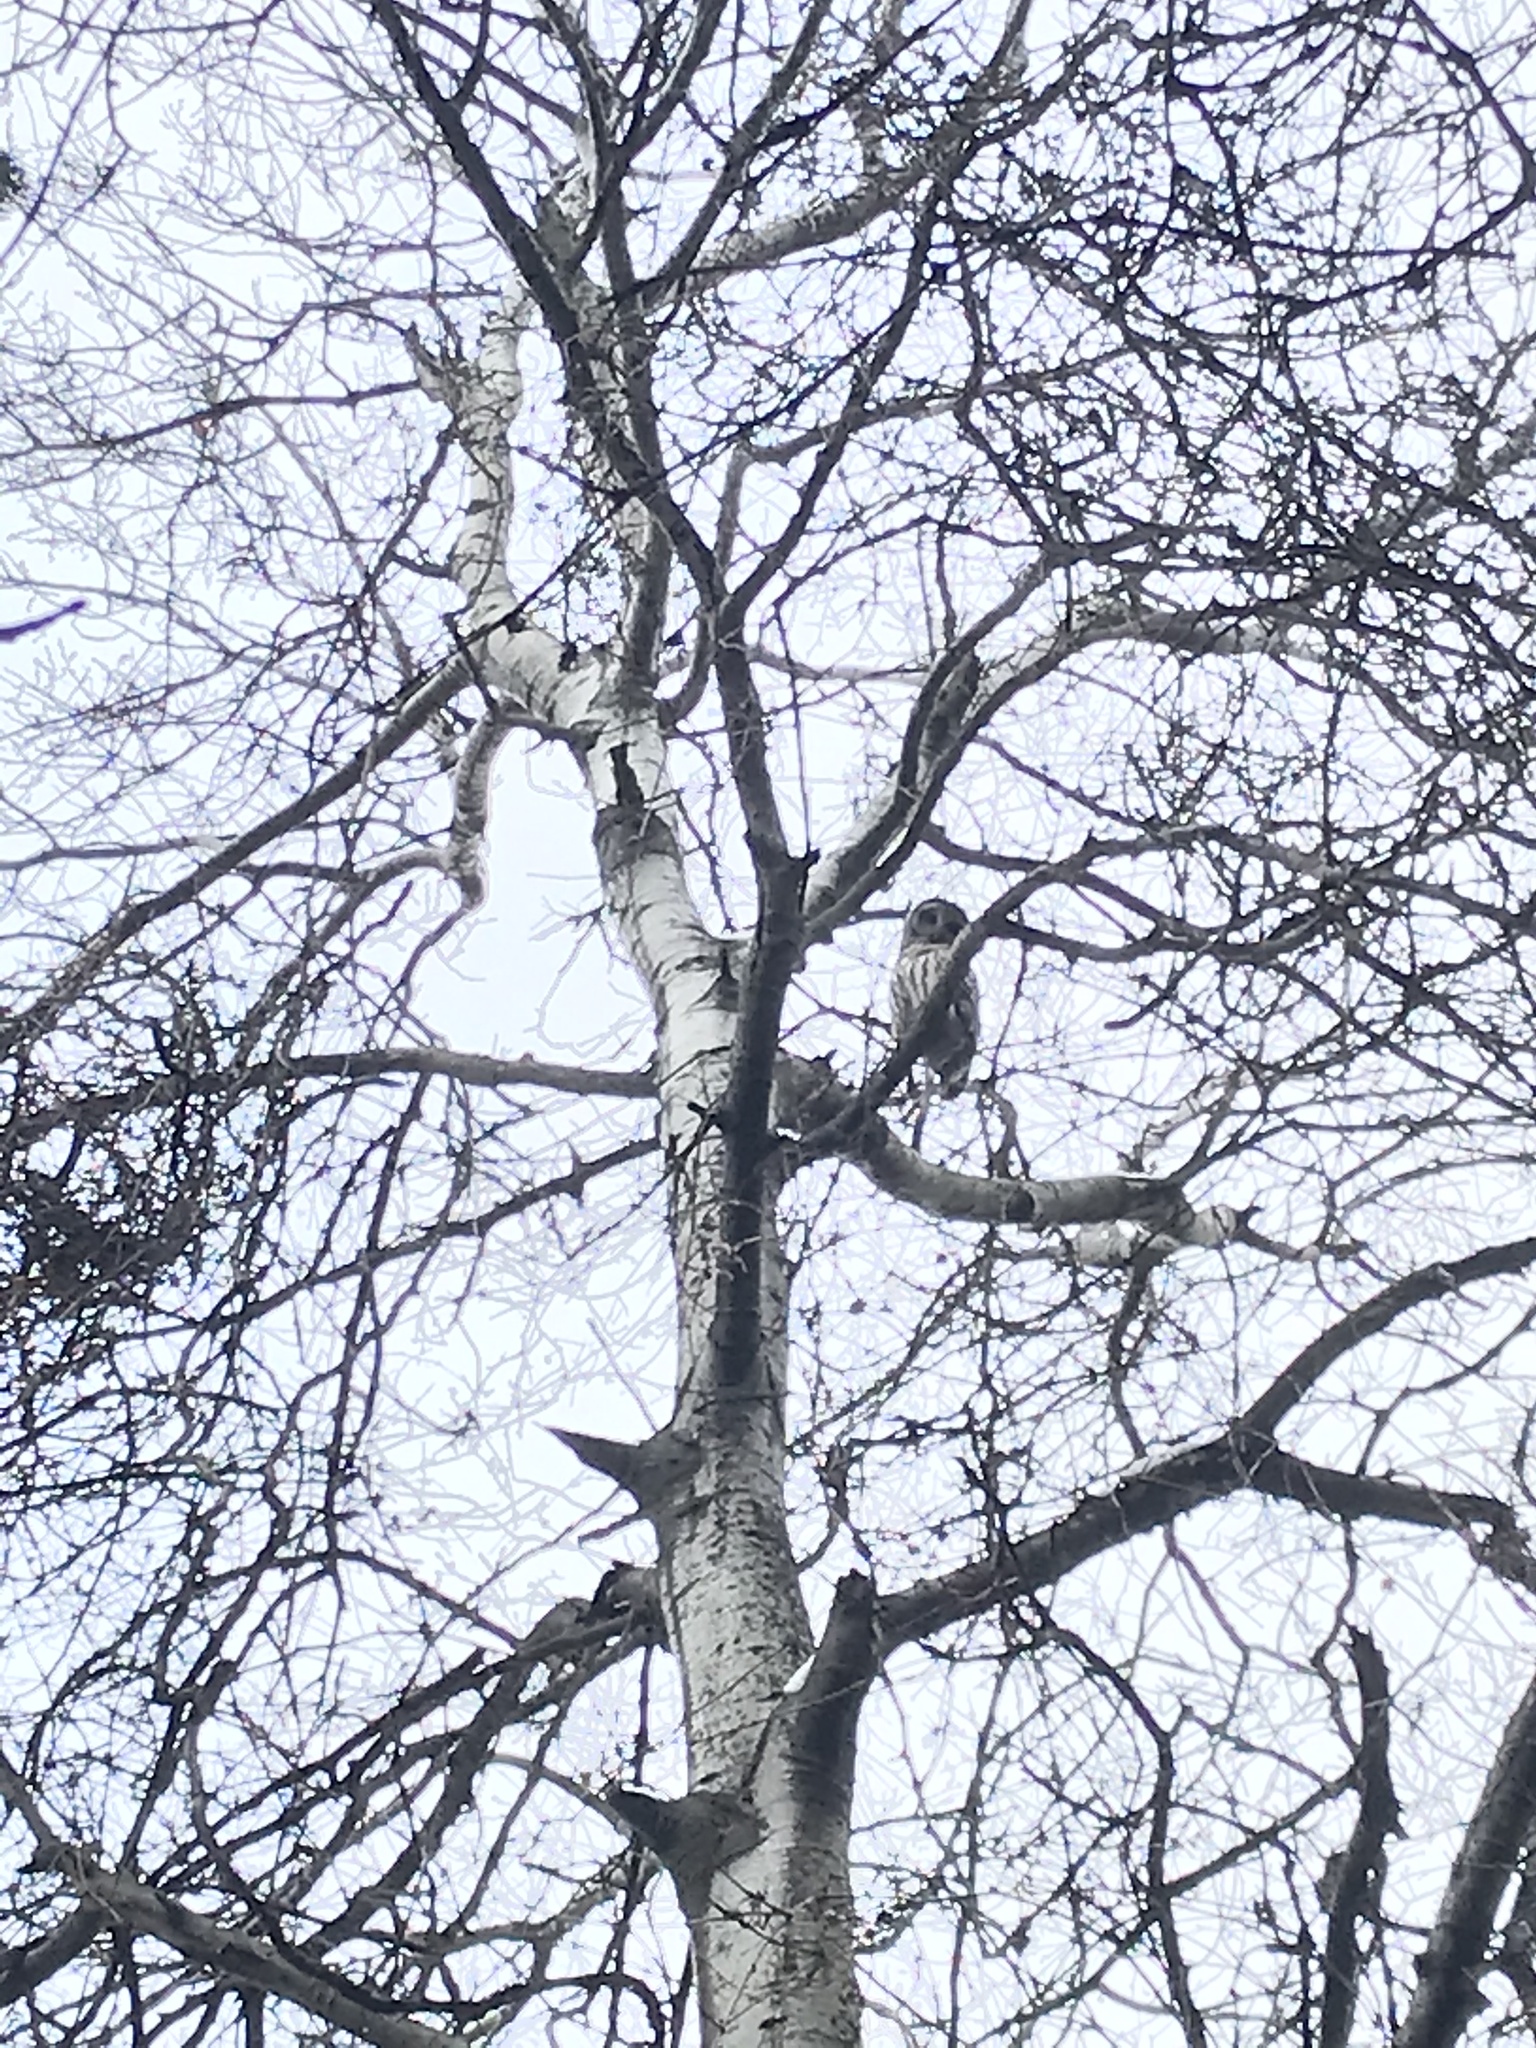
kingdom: Animalia
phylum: Chordata
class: Aves
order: Strigiformes
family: Strigidae
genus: Strix
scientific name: Strix varia
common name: Barred owl
